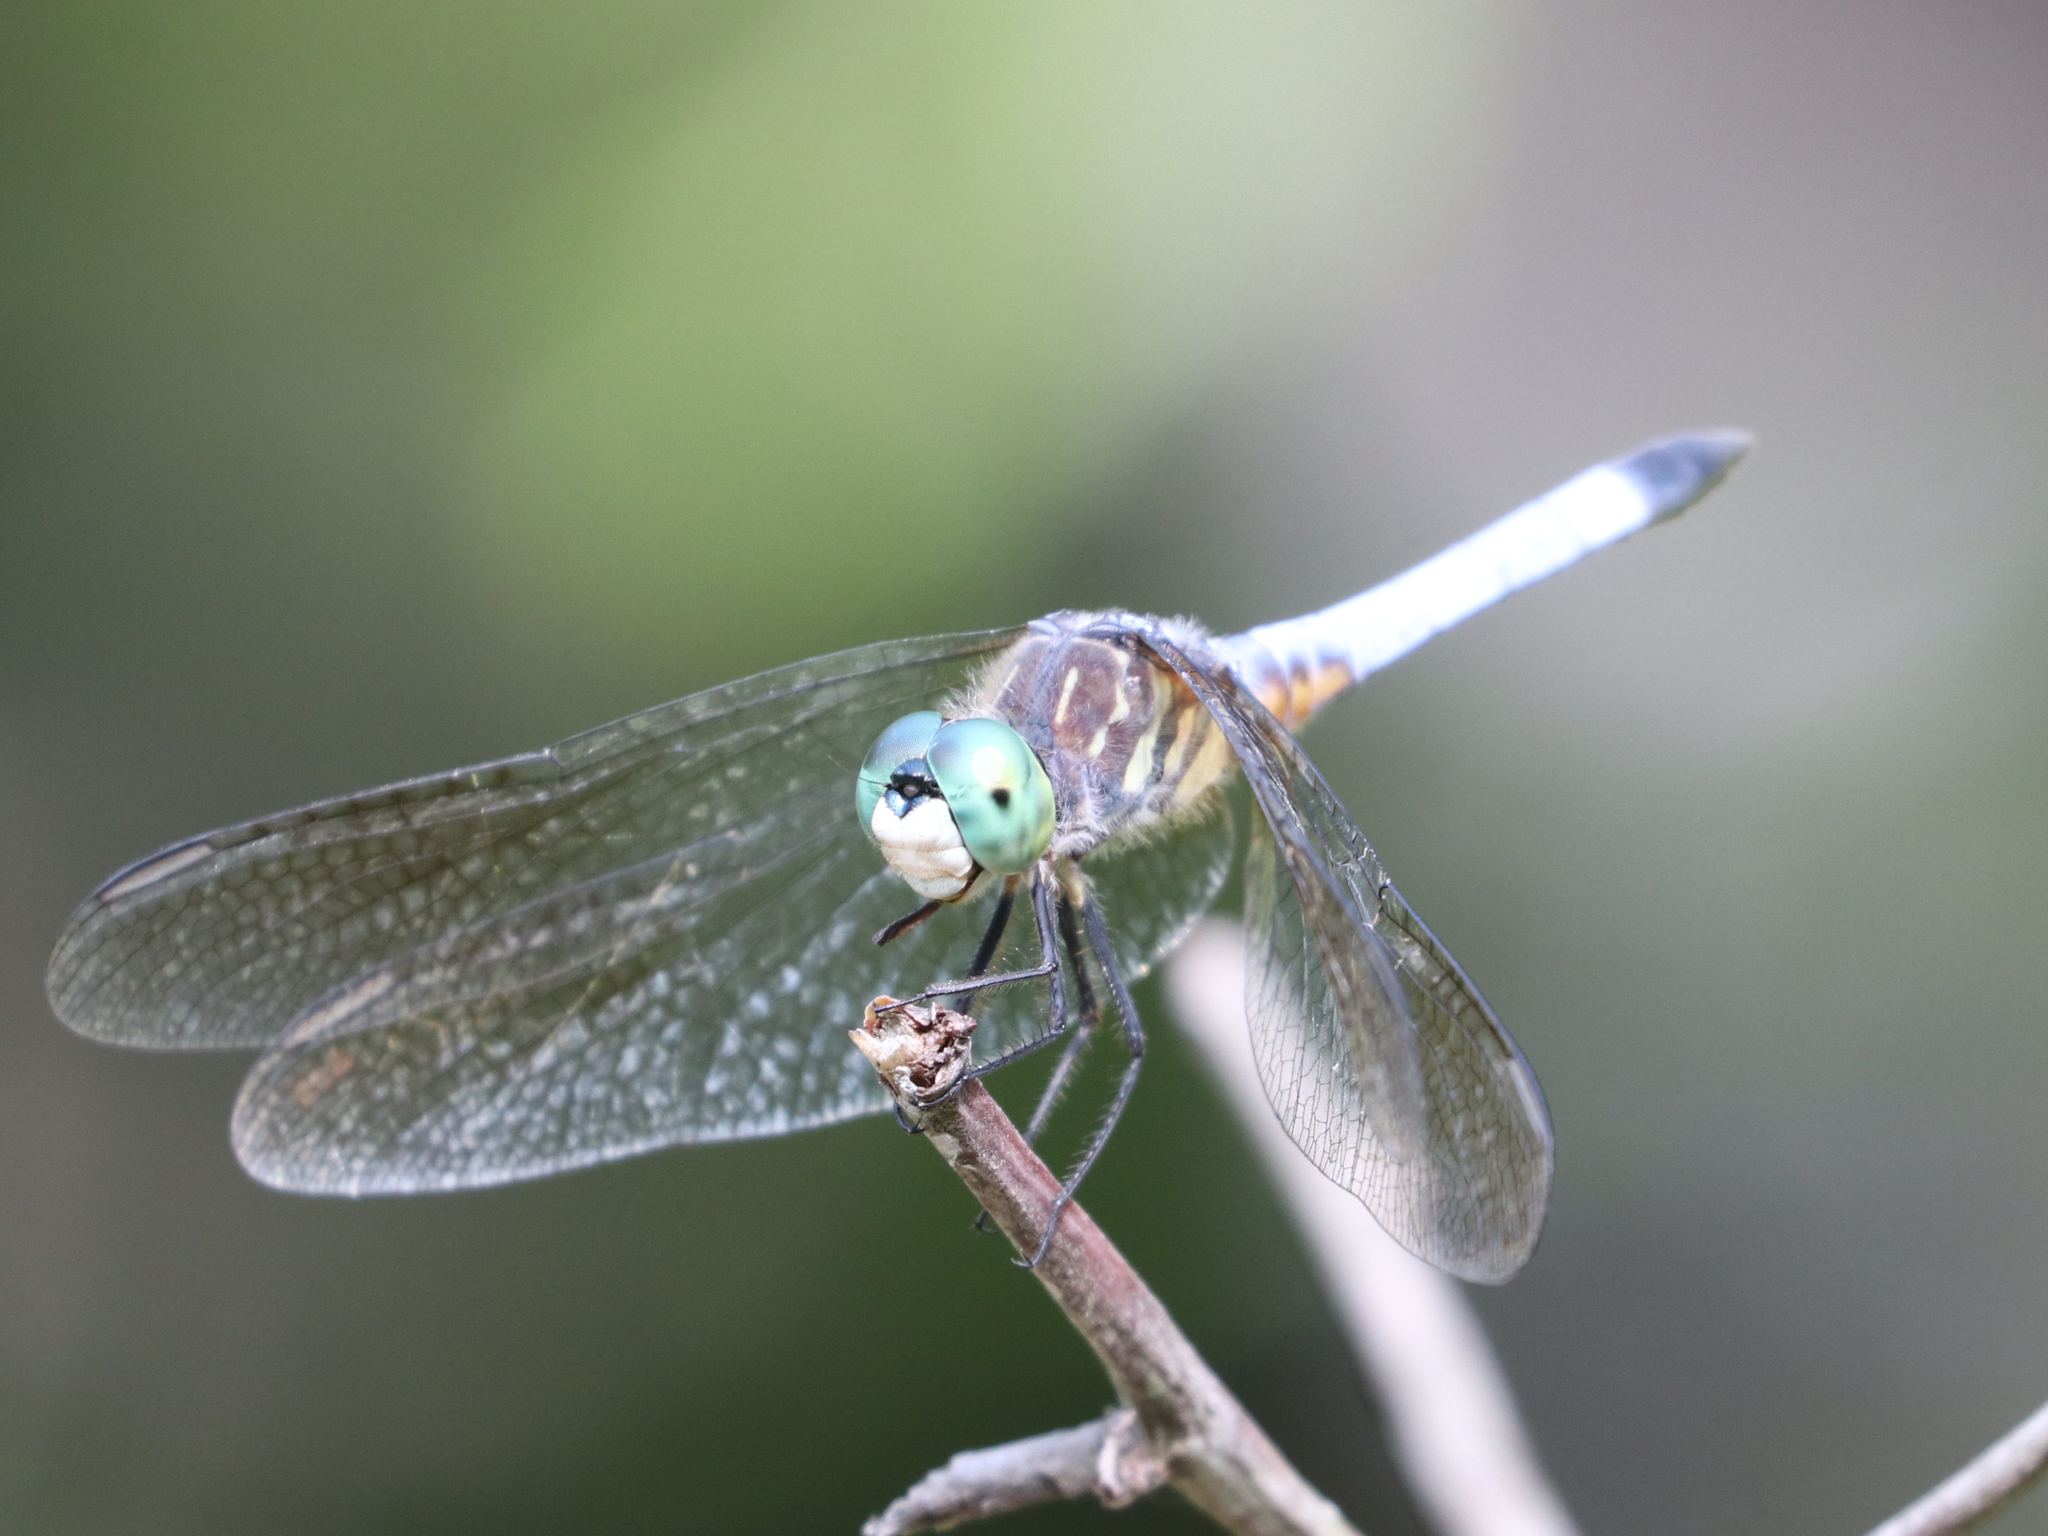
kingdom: Animalia
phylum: Arthropoda
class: Insecta
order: Odonata
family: Libellulidae
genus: Pachydiplax
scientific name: Pachydiplax longipennis
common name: Blue dasher
